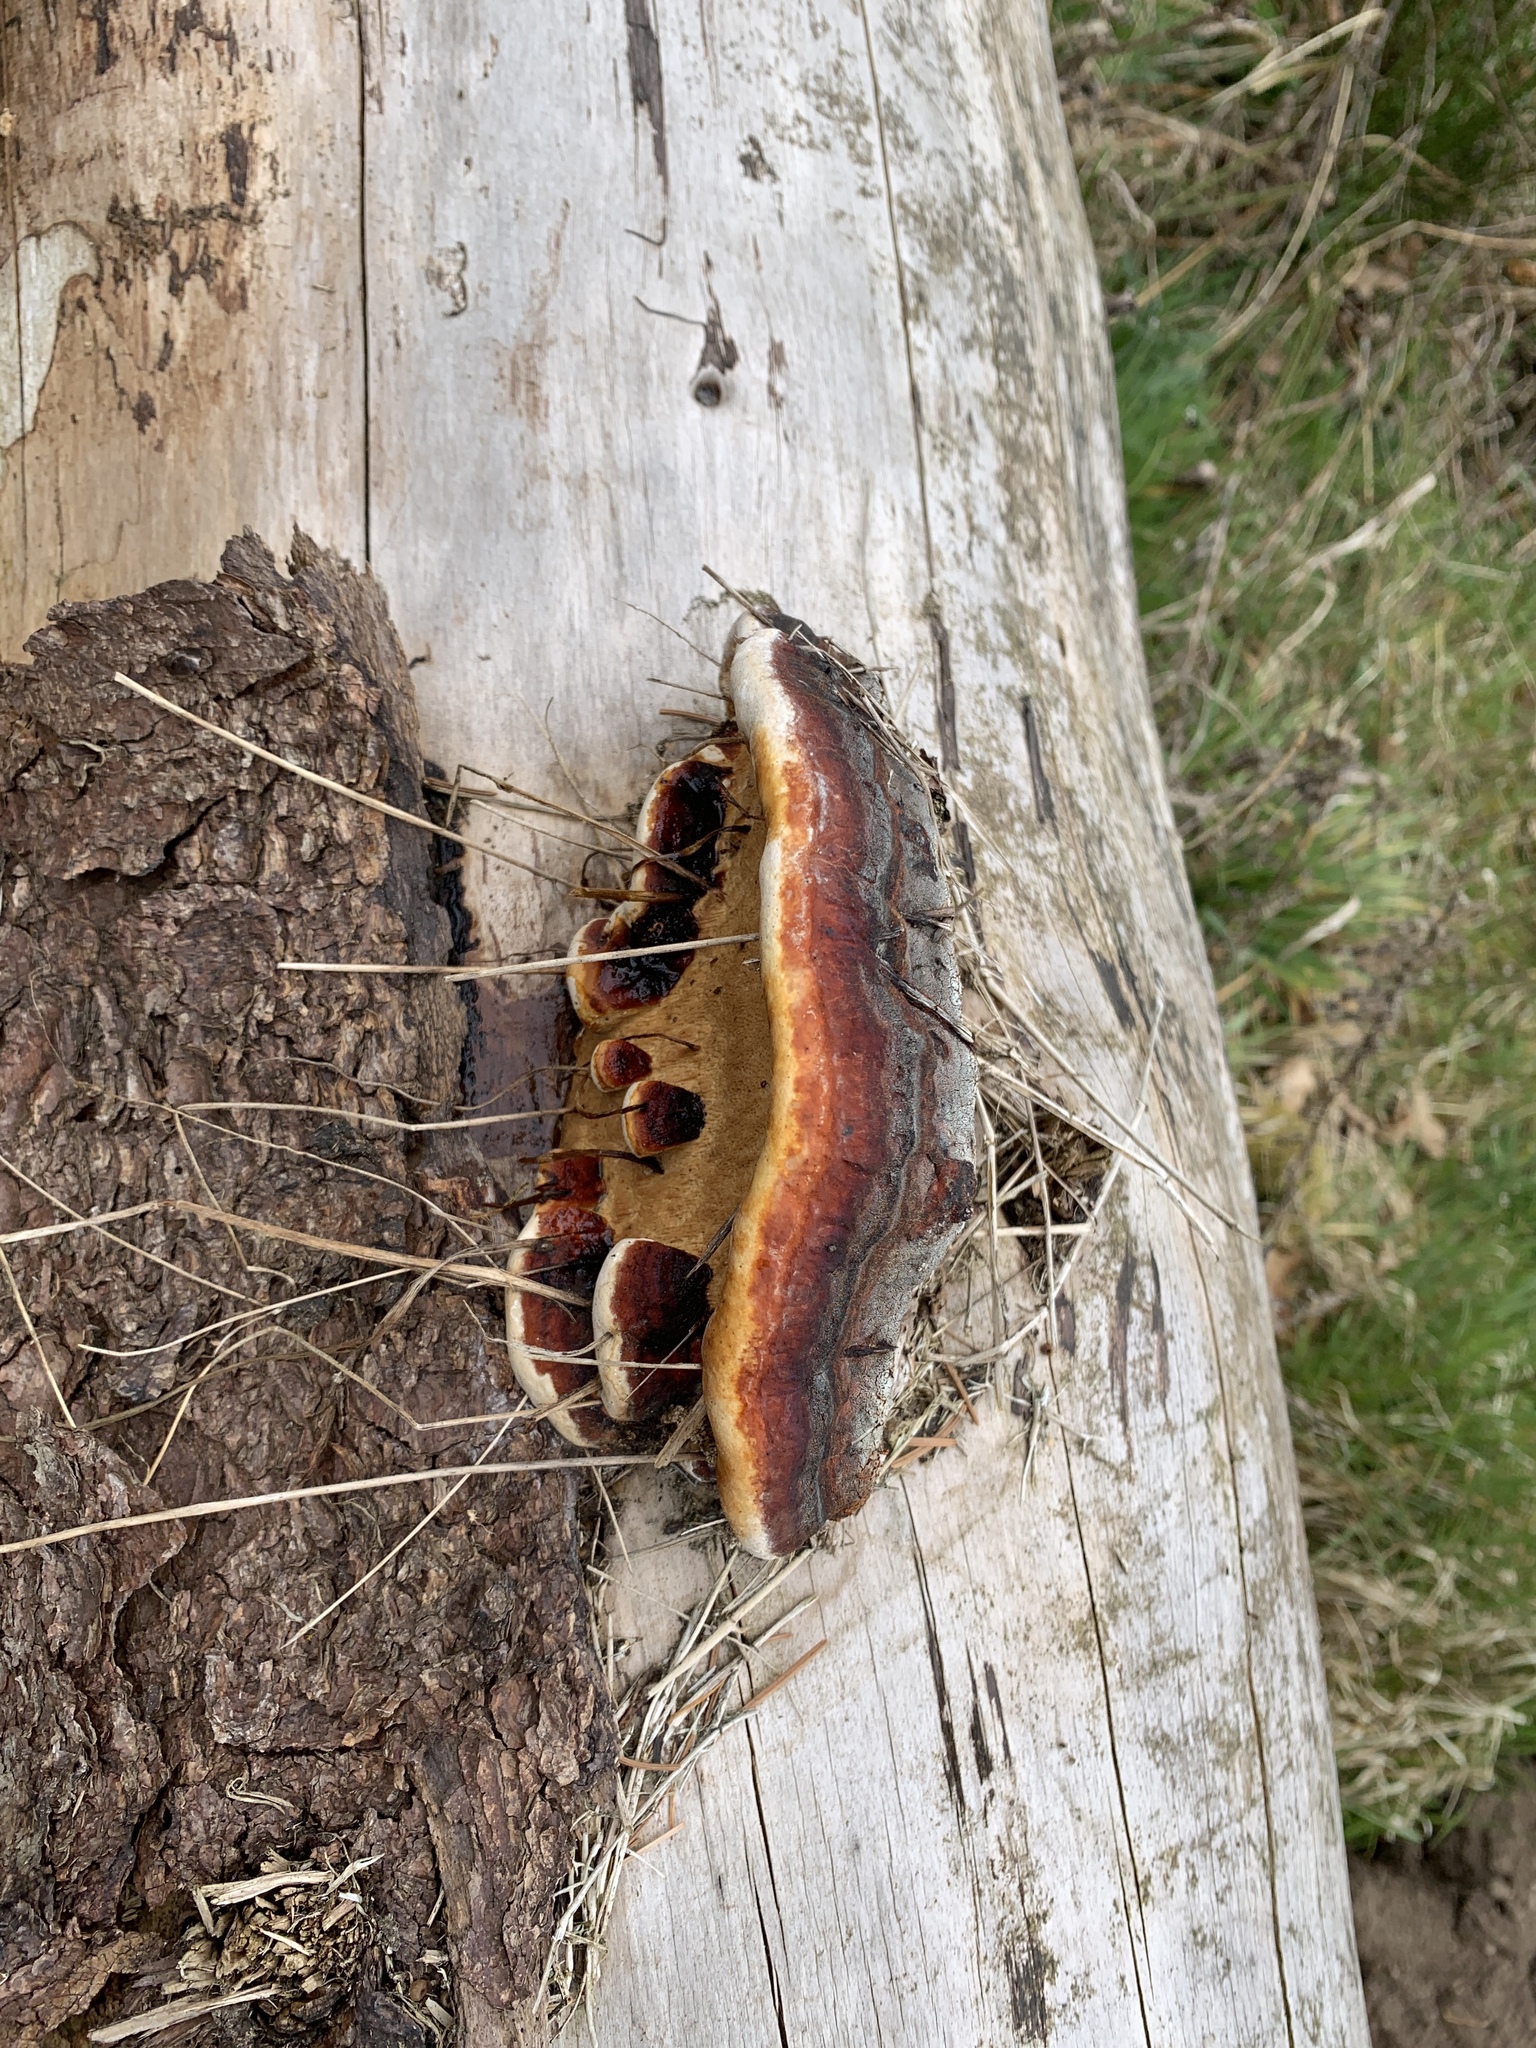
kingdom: Fungi
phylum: Basidiomycota
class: Agaricomycetes
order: Polyporales
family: Fomitopsidaceae
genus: Fomitopsis
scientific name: Fomitopsis pinicola
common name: Red-belted bracket
